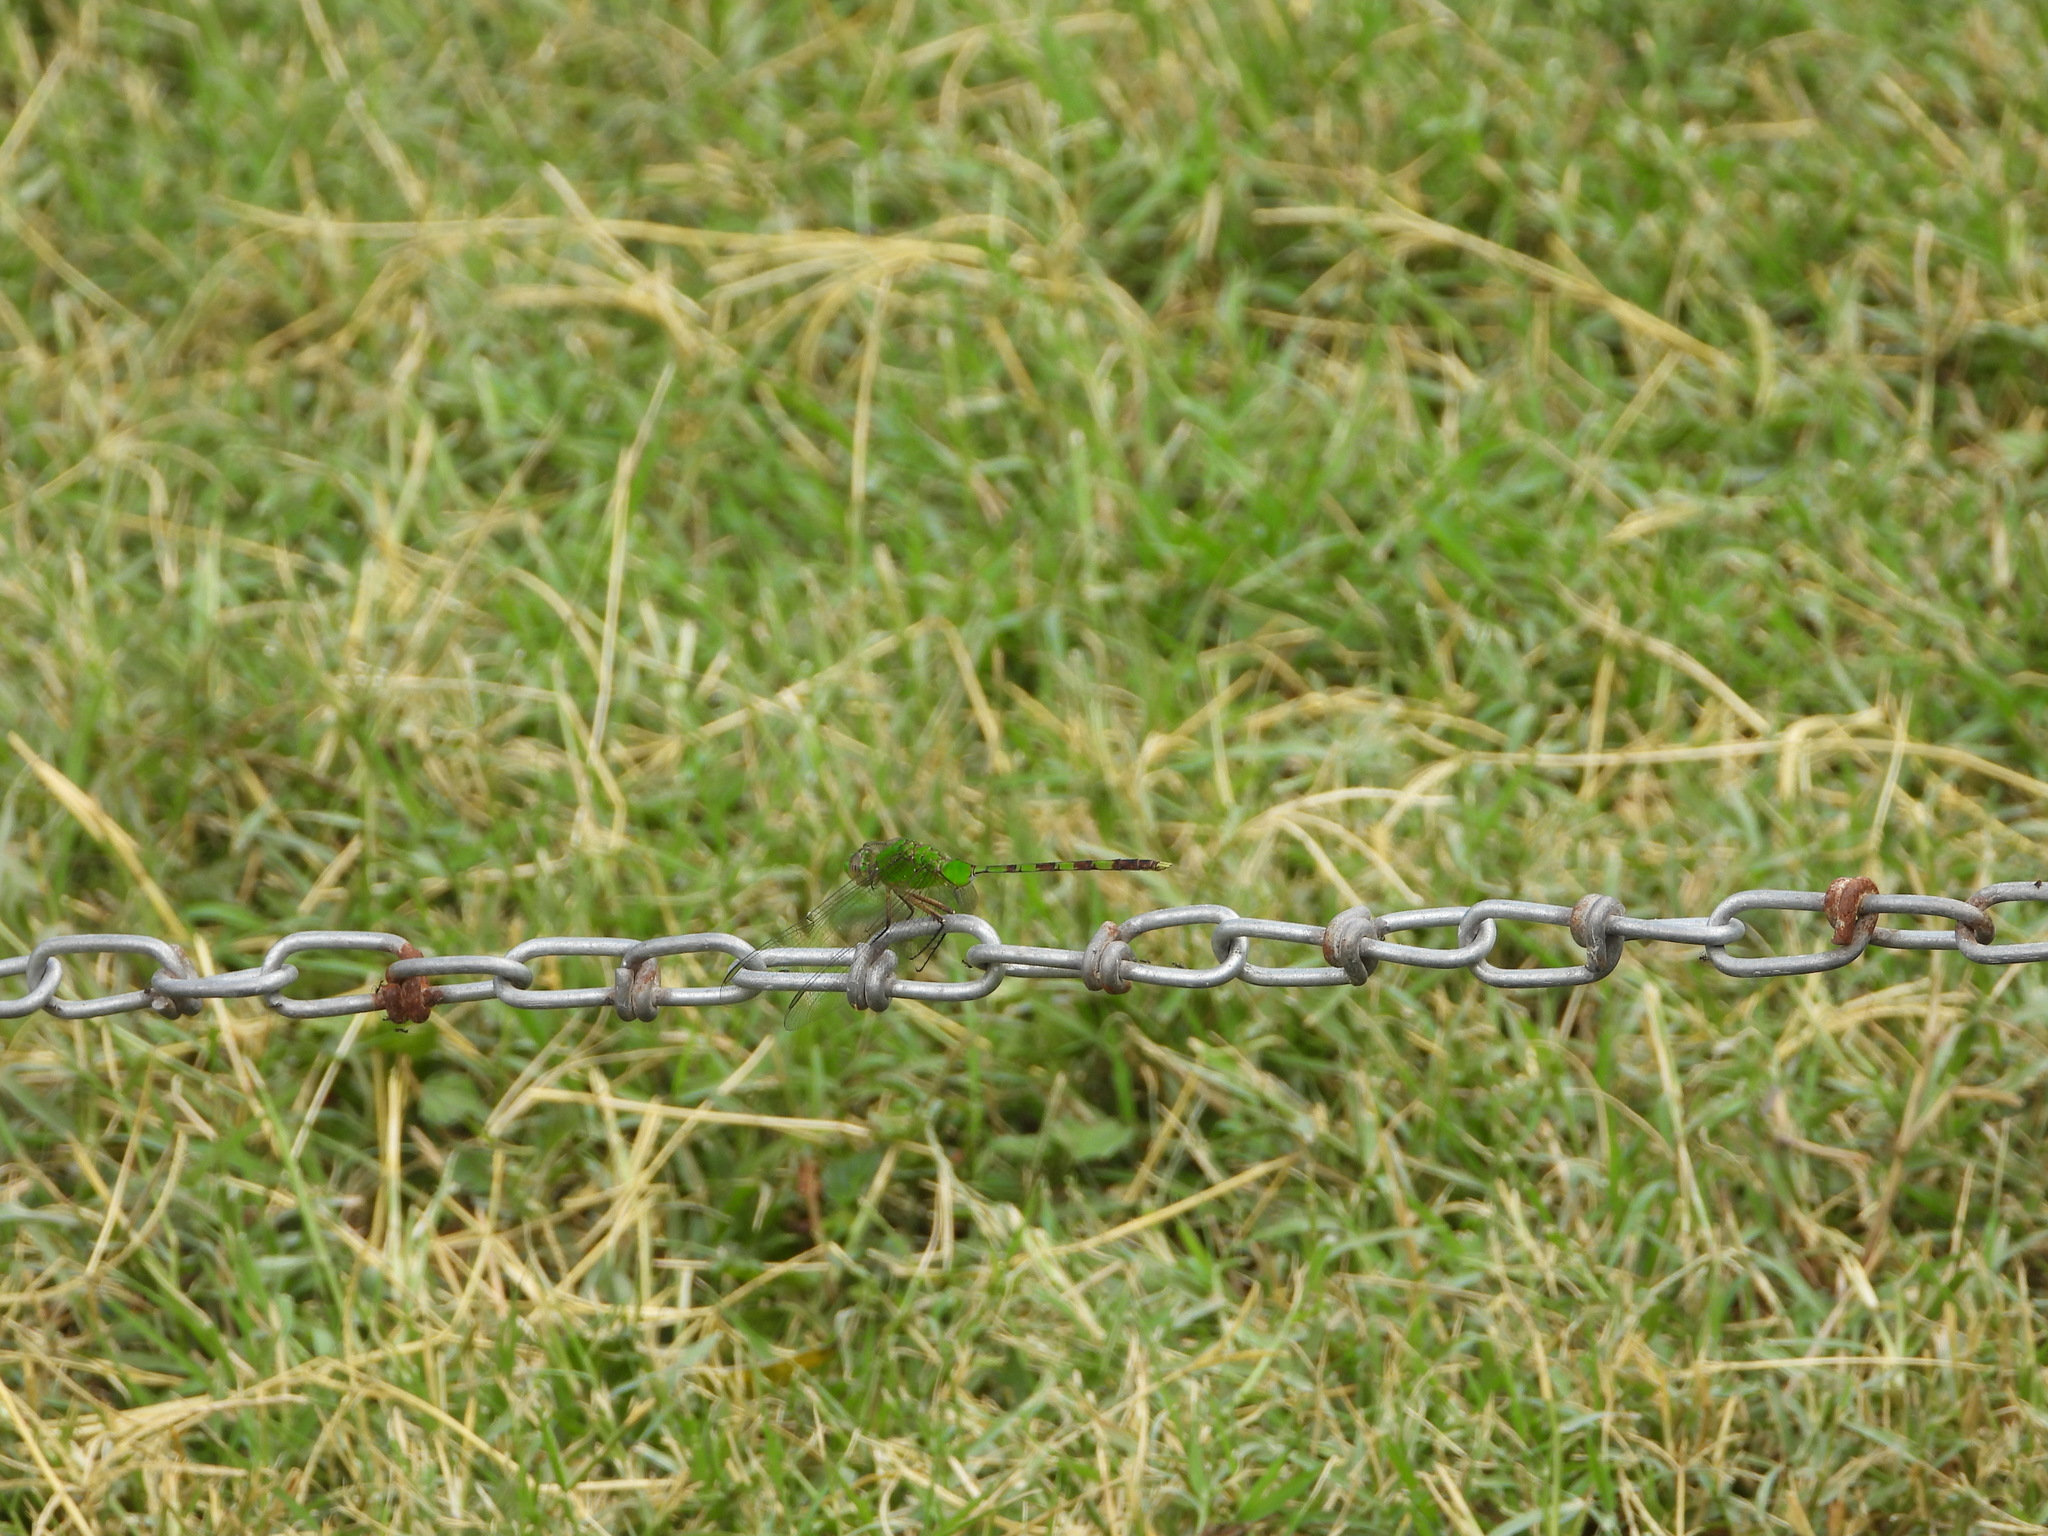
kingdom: Animalia
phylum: Arthropoda
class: Insecta
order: Odonata
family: Libellulidae
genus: Erythemis
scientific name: Erythemis vesiculosa
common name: Great pondhawk
